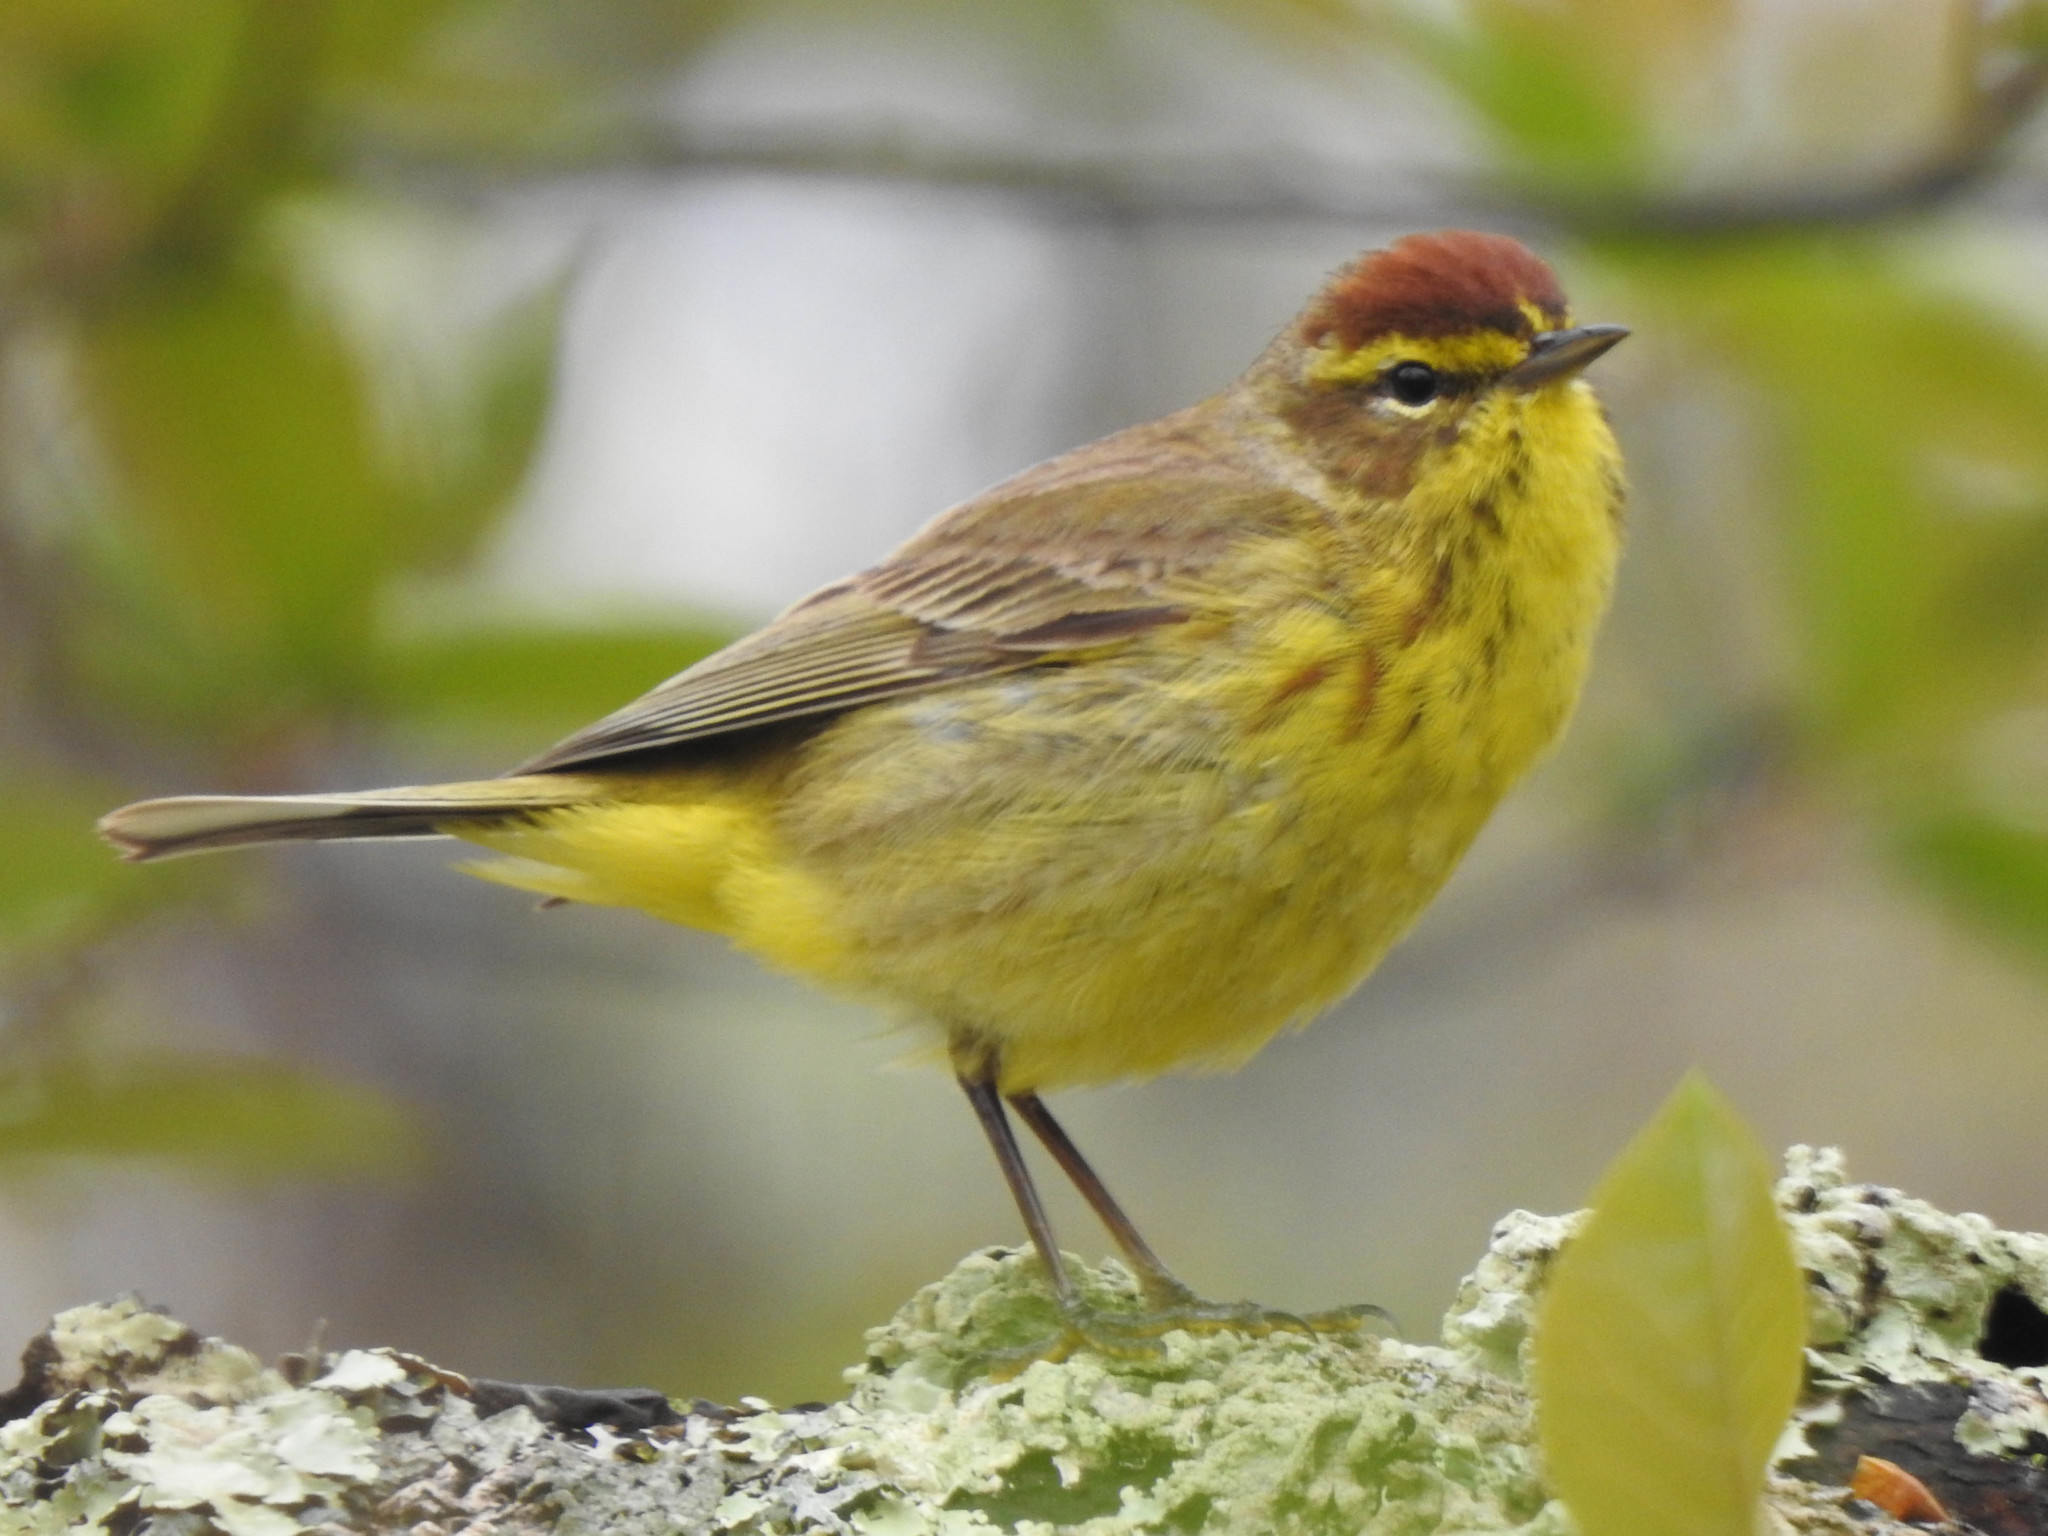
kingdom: Animalia
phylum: Chordata
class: Aves
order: Passeriformes
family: Parulidae
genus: Setophaga
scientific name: Setophaga palmarum
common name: Palm warbler
